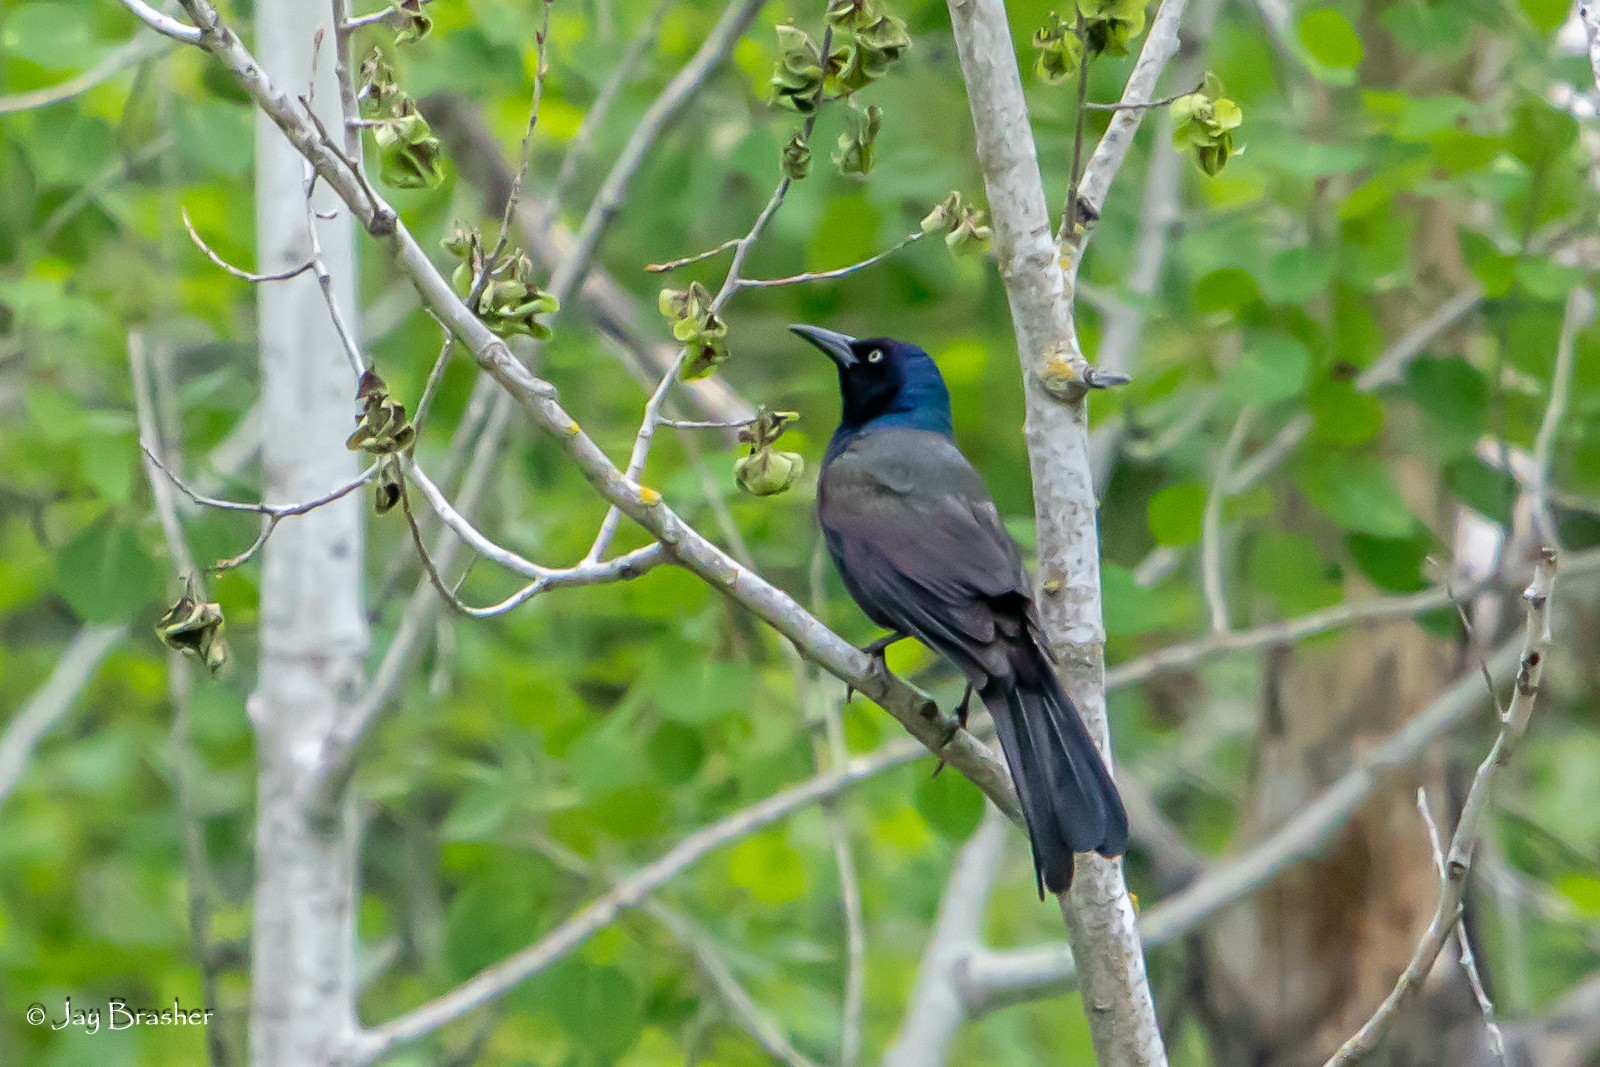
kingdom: Animalia
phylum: Chordata
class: Aves
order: Passeriformes
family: Icteridae
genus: Quiscalus
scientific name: Quiscalus quiscula
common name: Common grackle
